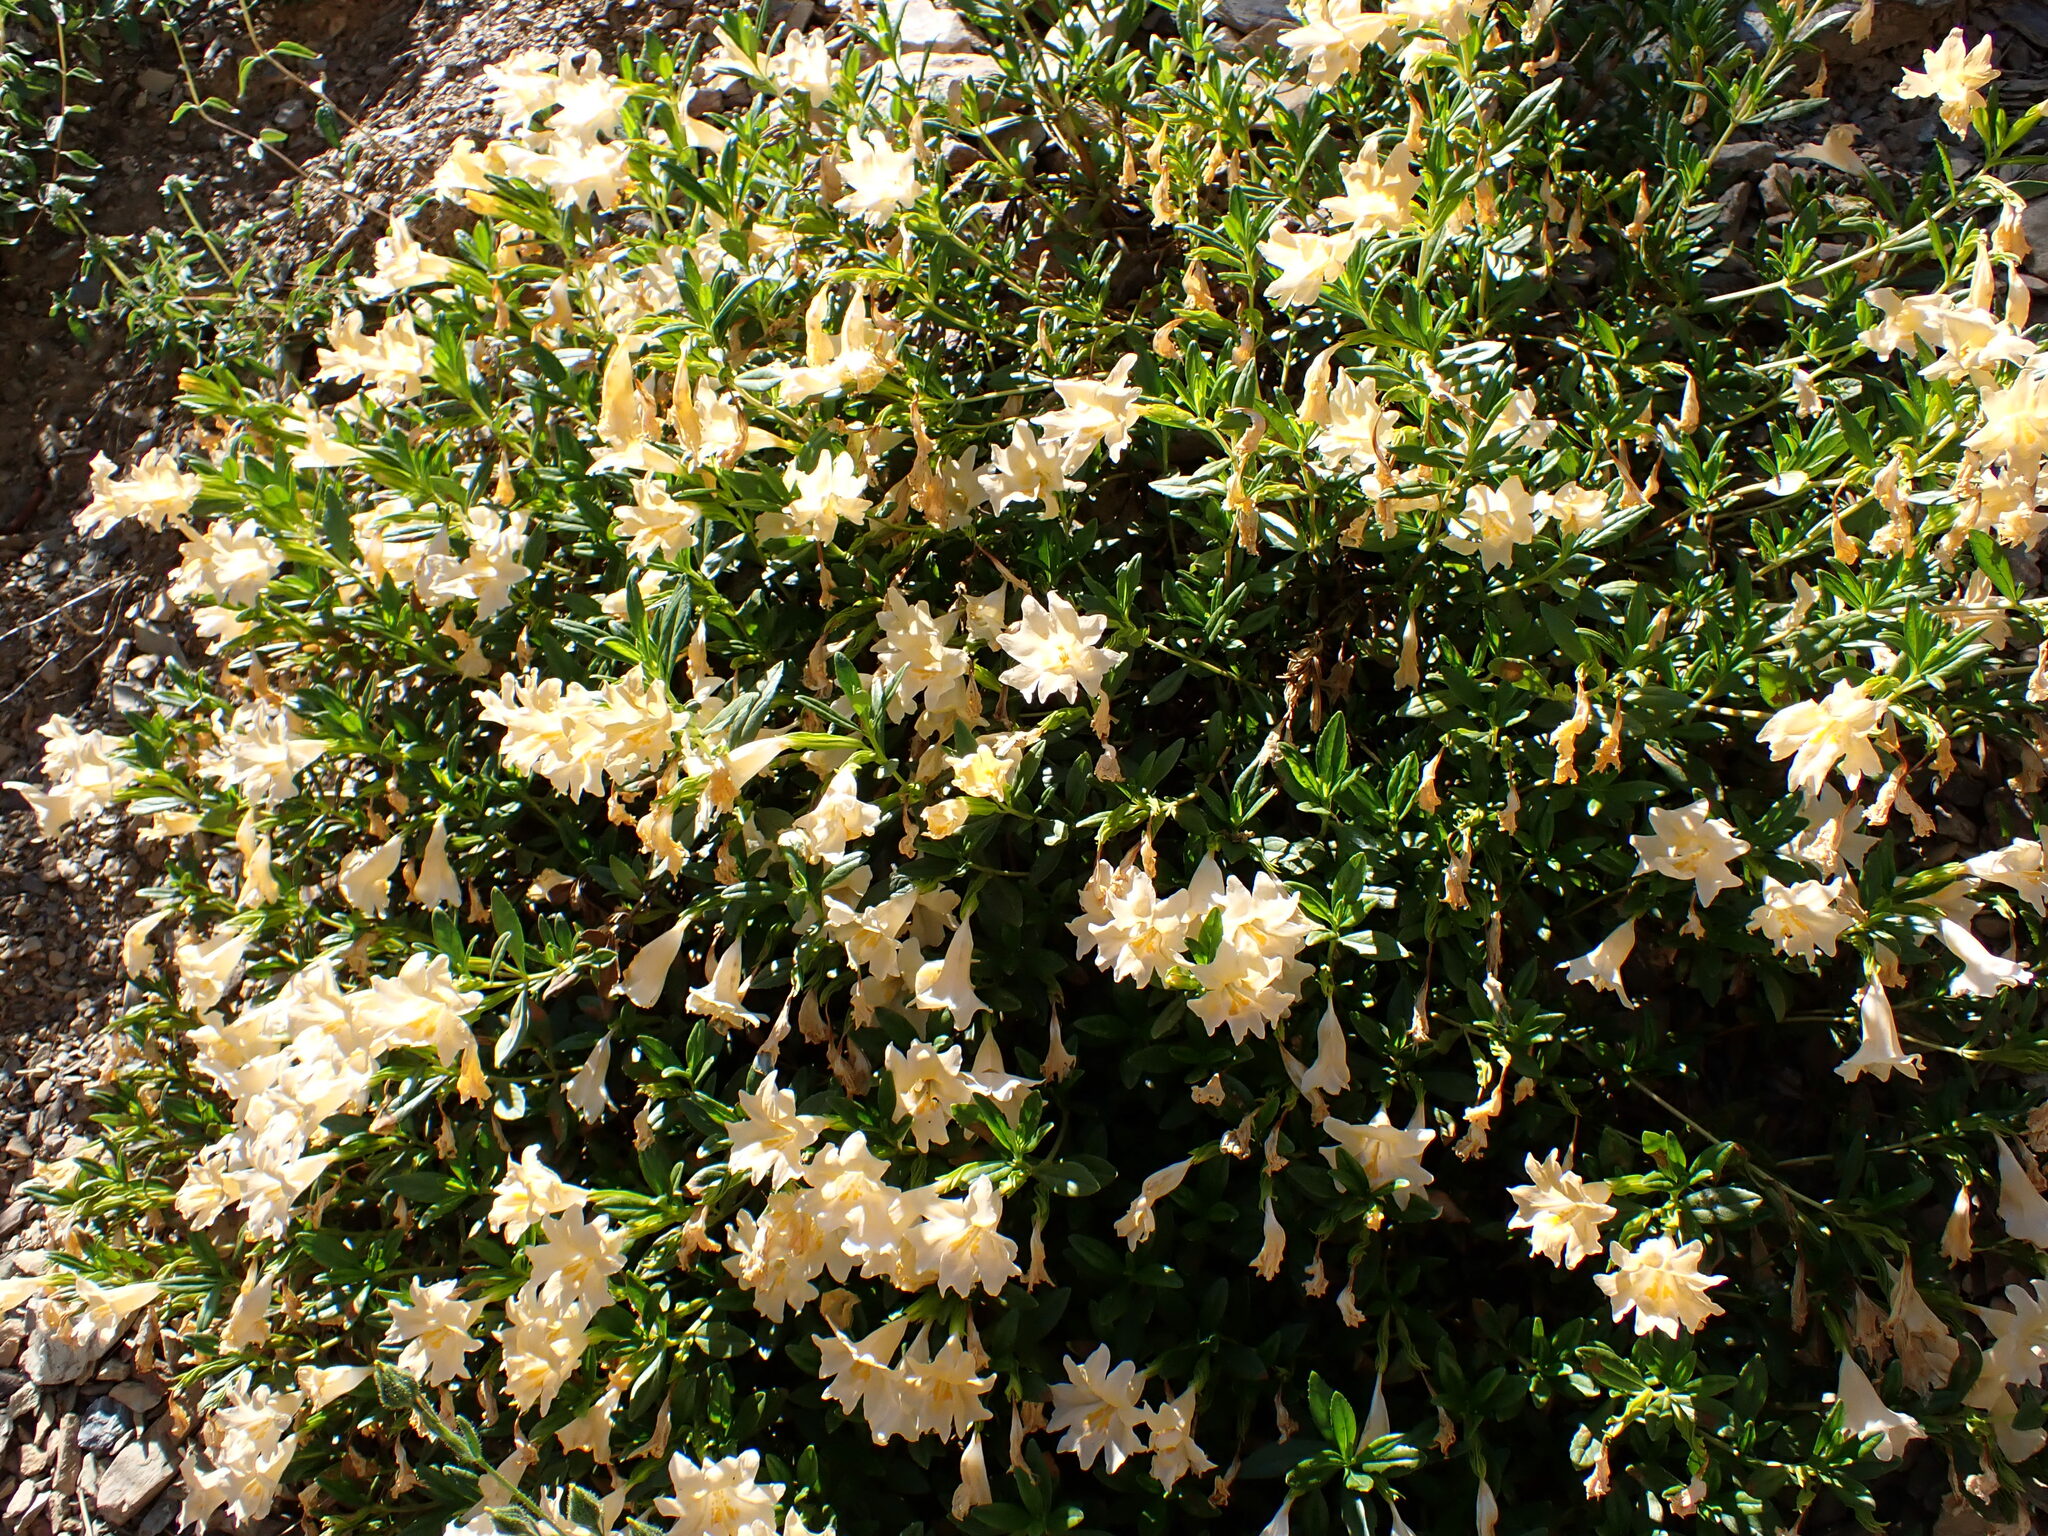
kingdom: Plantae
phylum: Tracheophyta
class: Magnoliopsida
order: Lamiales
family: Phrymaceae
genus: Diplacus
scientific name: Diplacus grandiflorus
